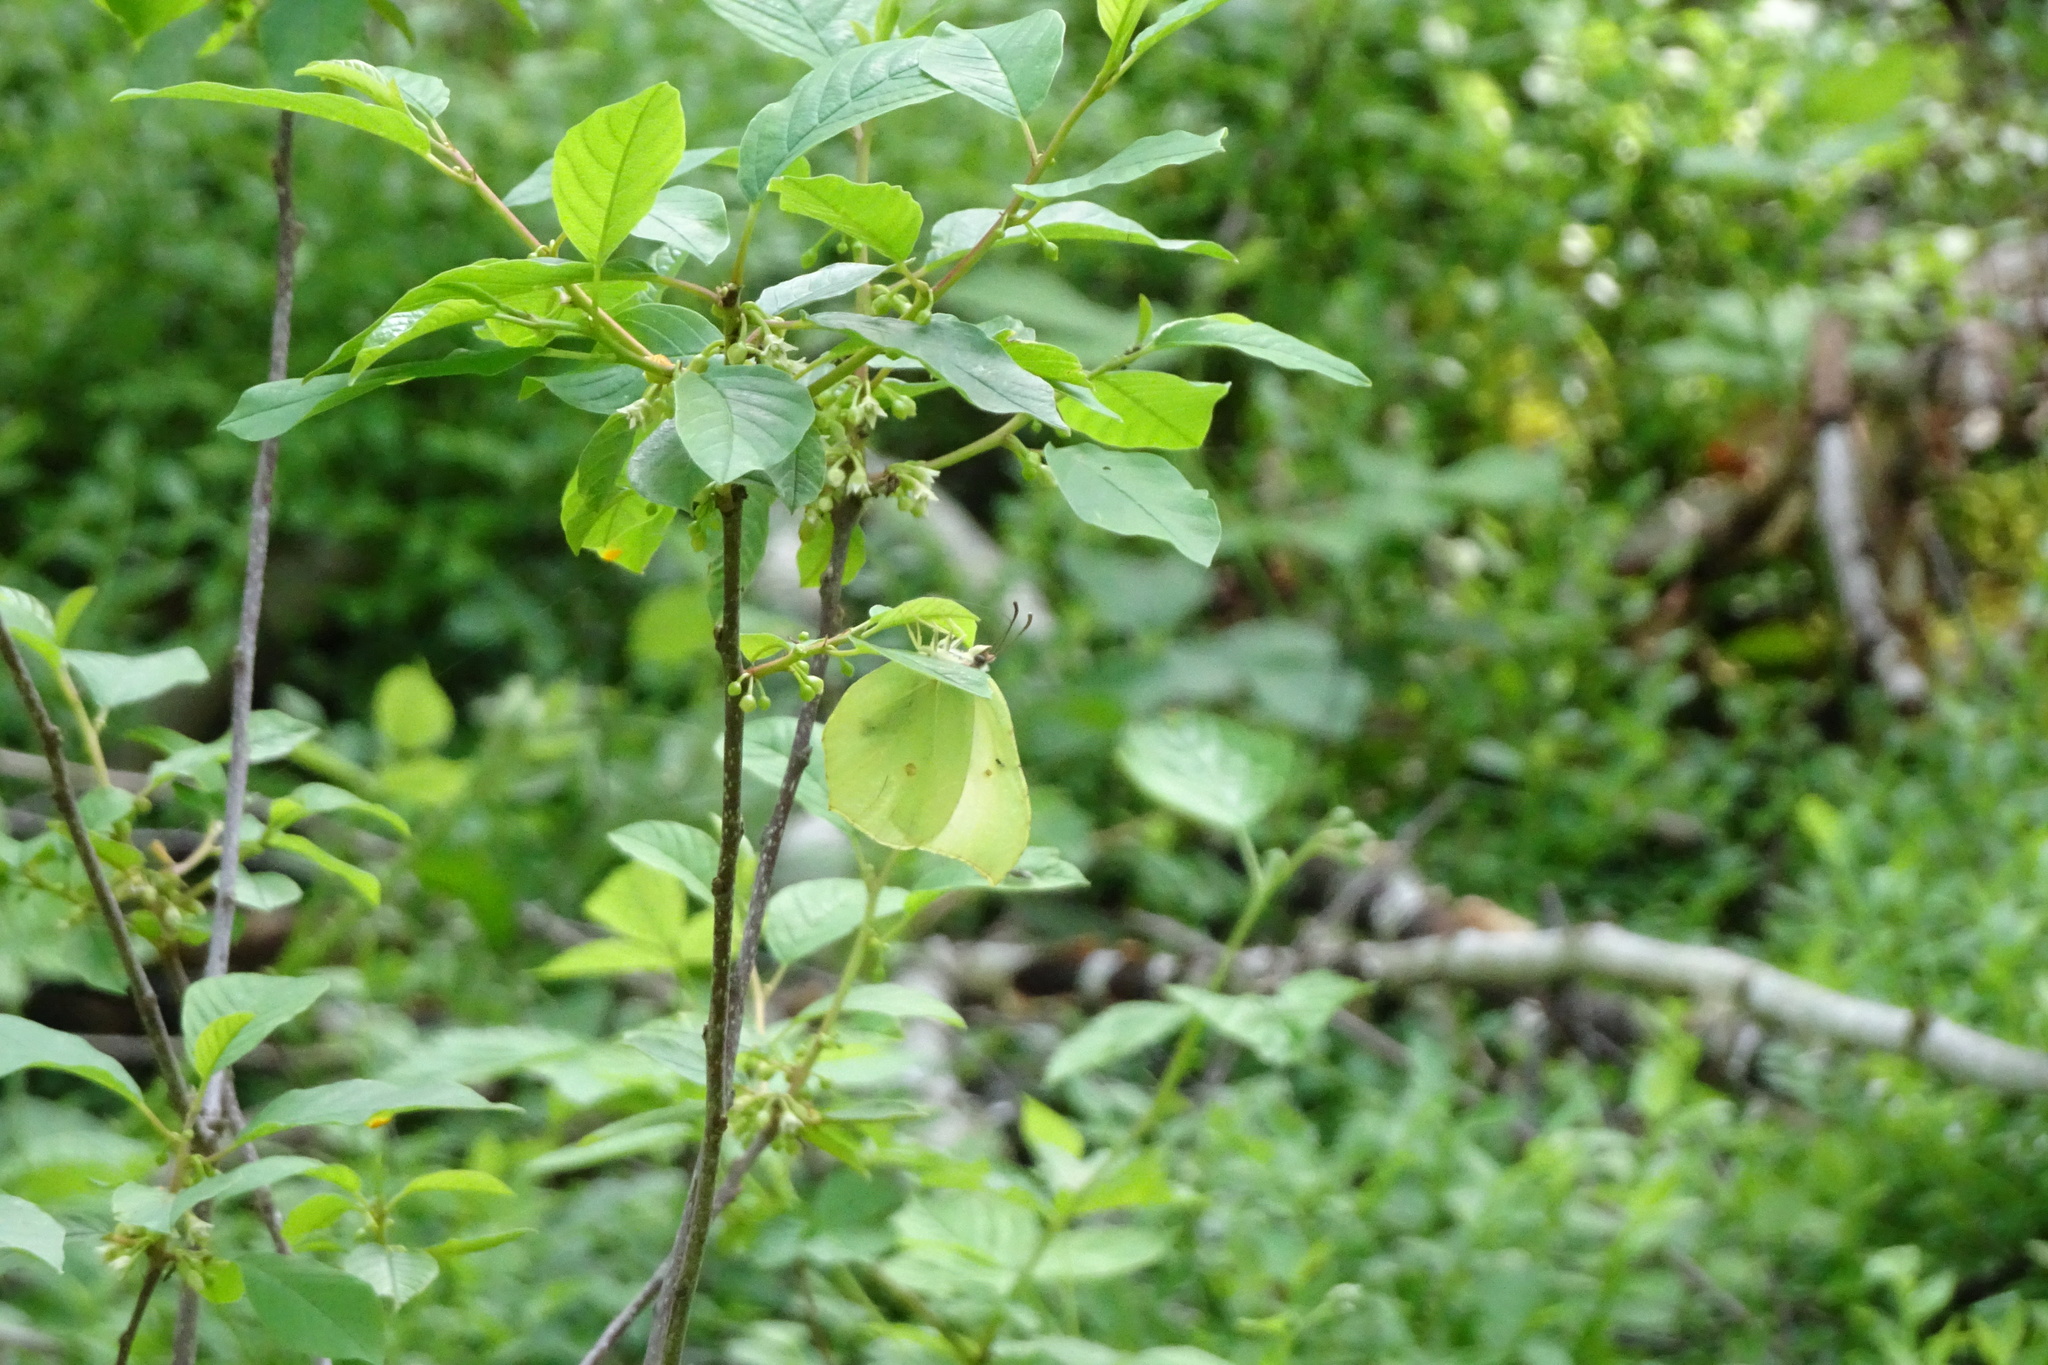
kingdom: Animalia
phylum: Arthropoda
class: Insecta
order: Lepidoptera
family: Pieridae
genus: Gonepteryx
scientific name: Gonepteryx rhamni
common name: Brimstone
